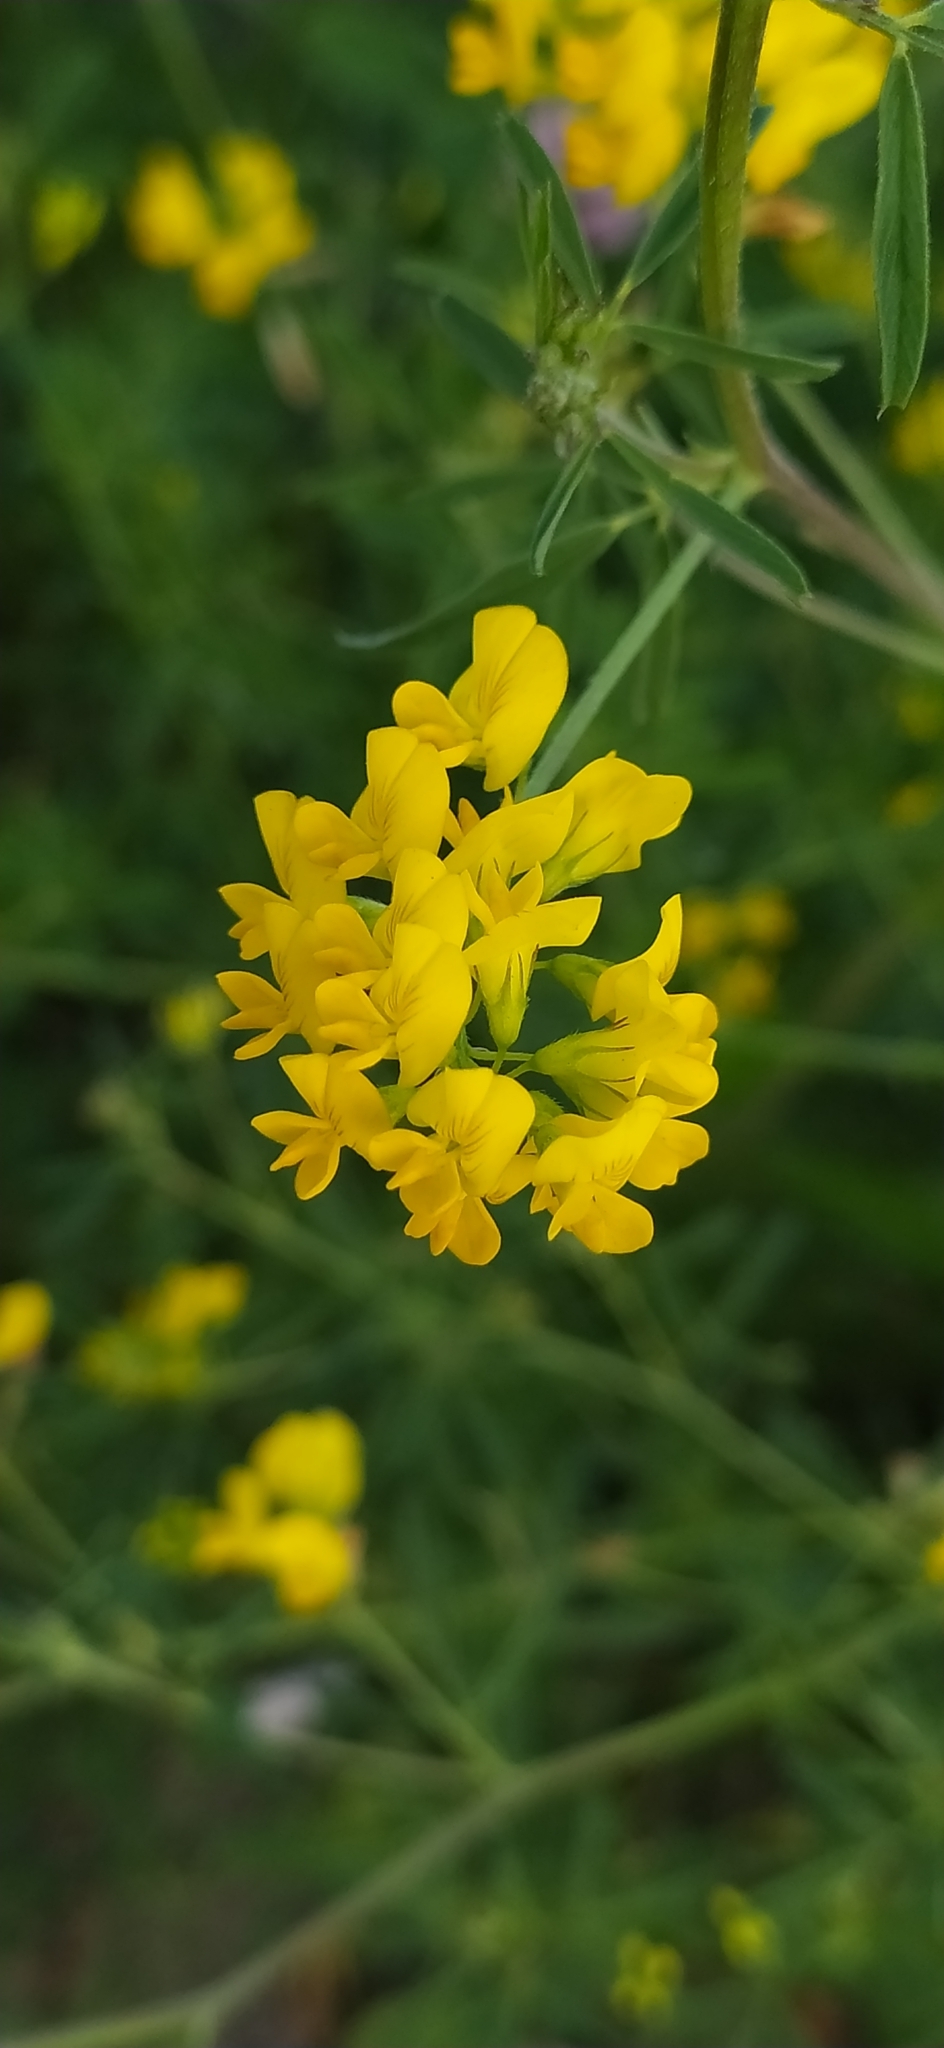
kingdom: Plantae
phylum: Tracheophyta
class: Magnoliopsida
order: Fabales
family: Fabaceae
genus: Medicago
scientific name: Medicago falcata
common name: Sickle medick
